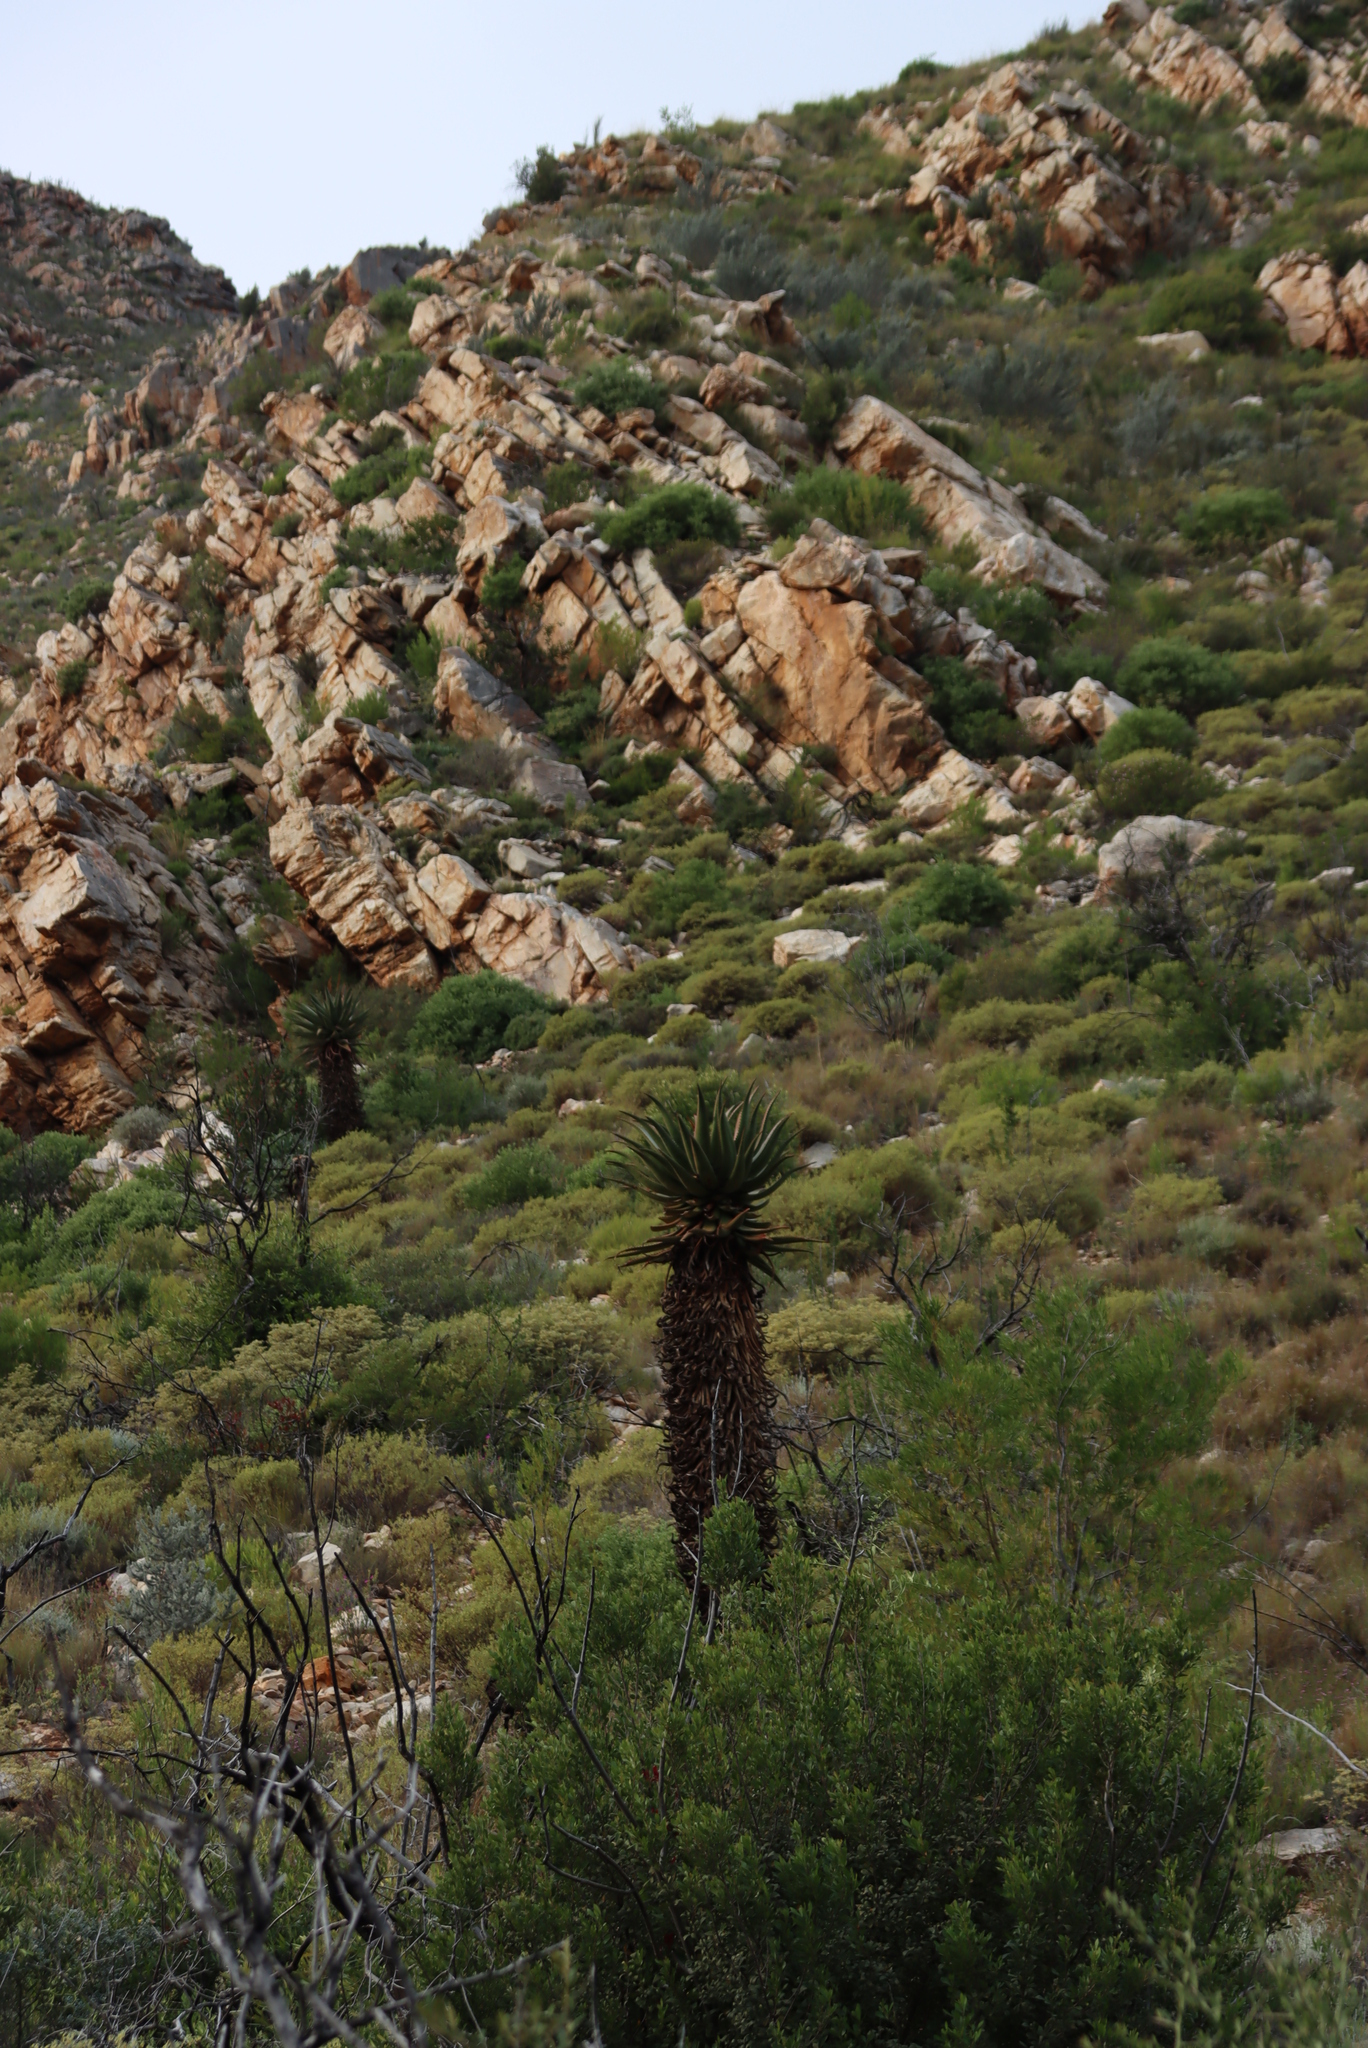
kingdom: Plantae
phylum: Tracheophyta
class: Liliopsida
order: Asparagales
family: Asphodelaceae
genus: Aloe
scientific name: Aloe ferox
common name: Bitter aloe
